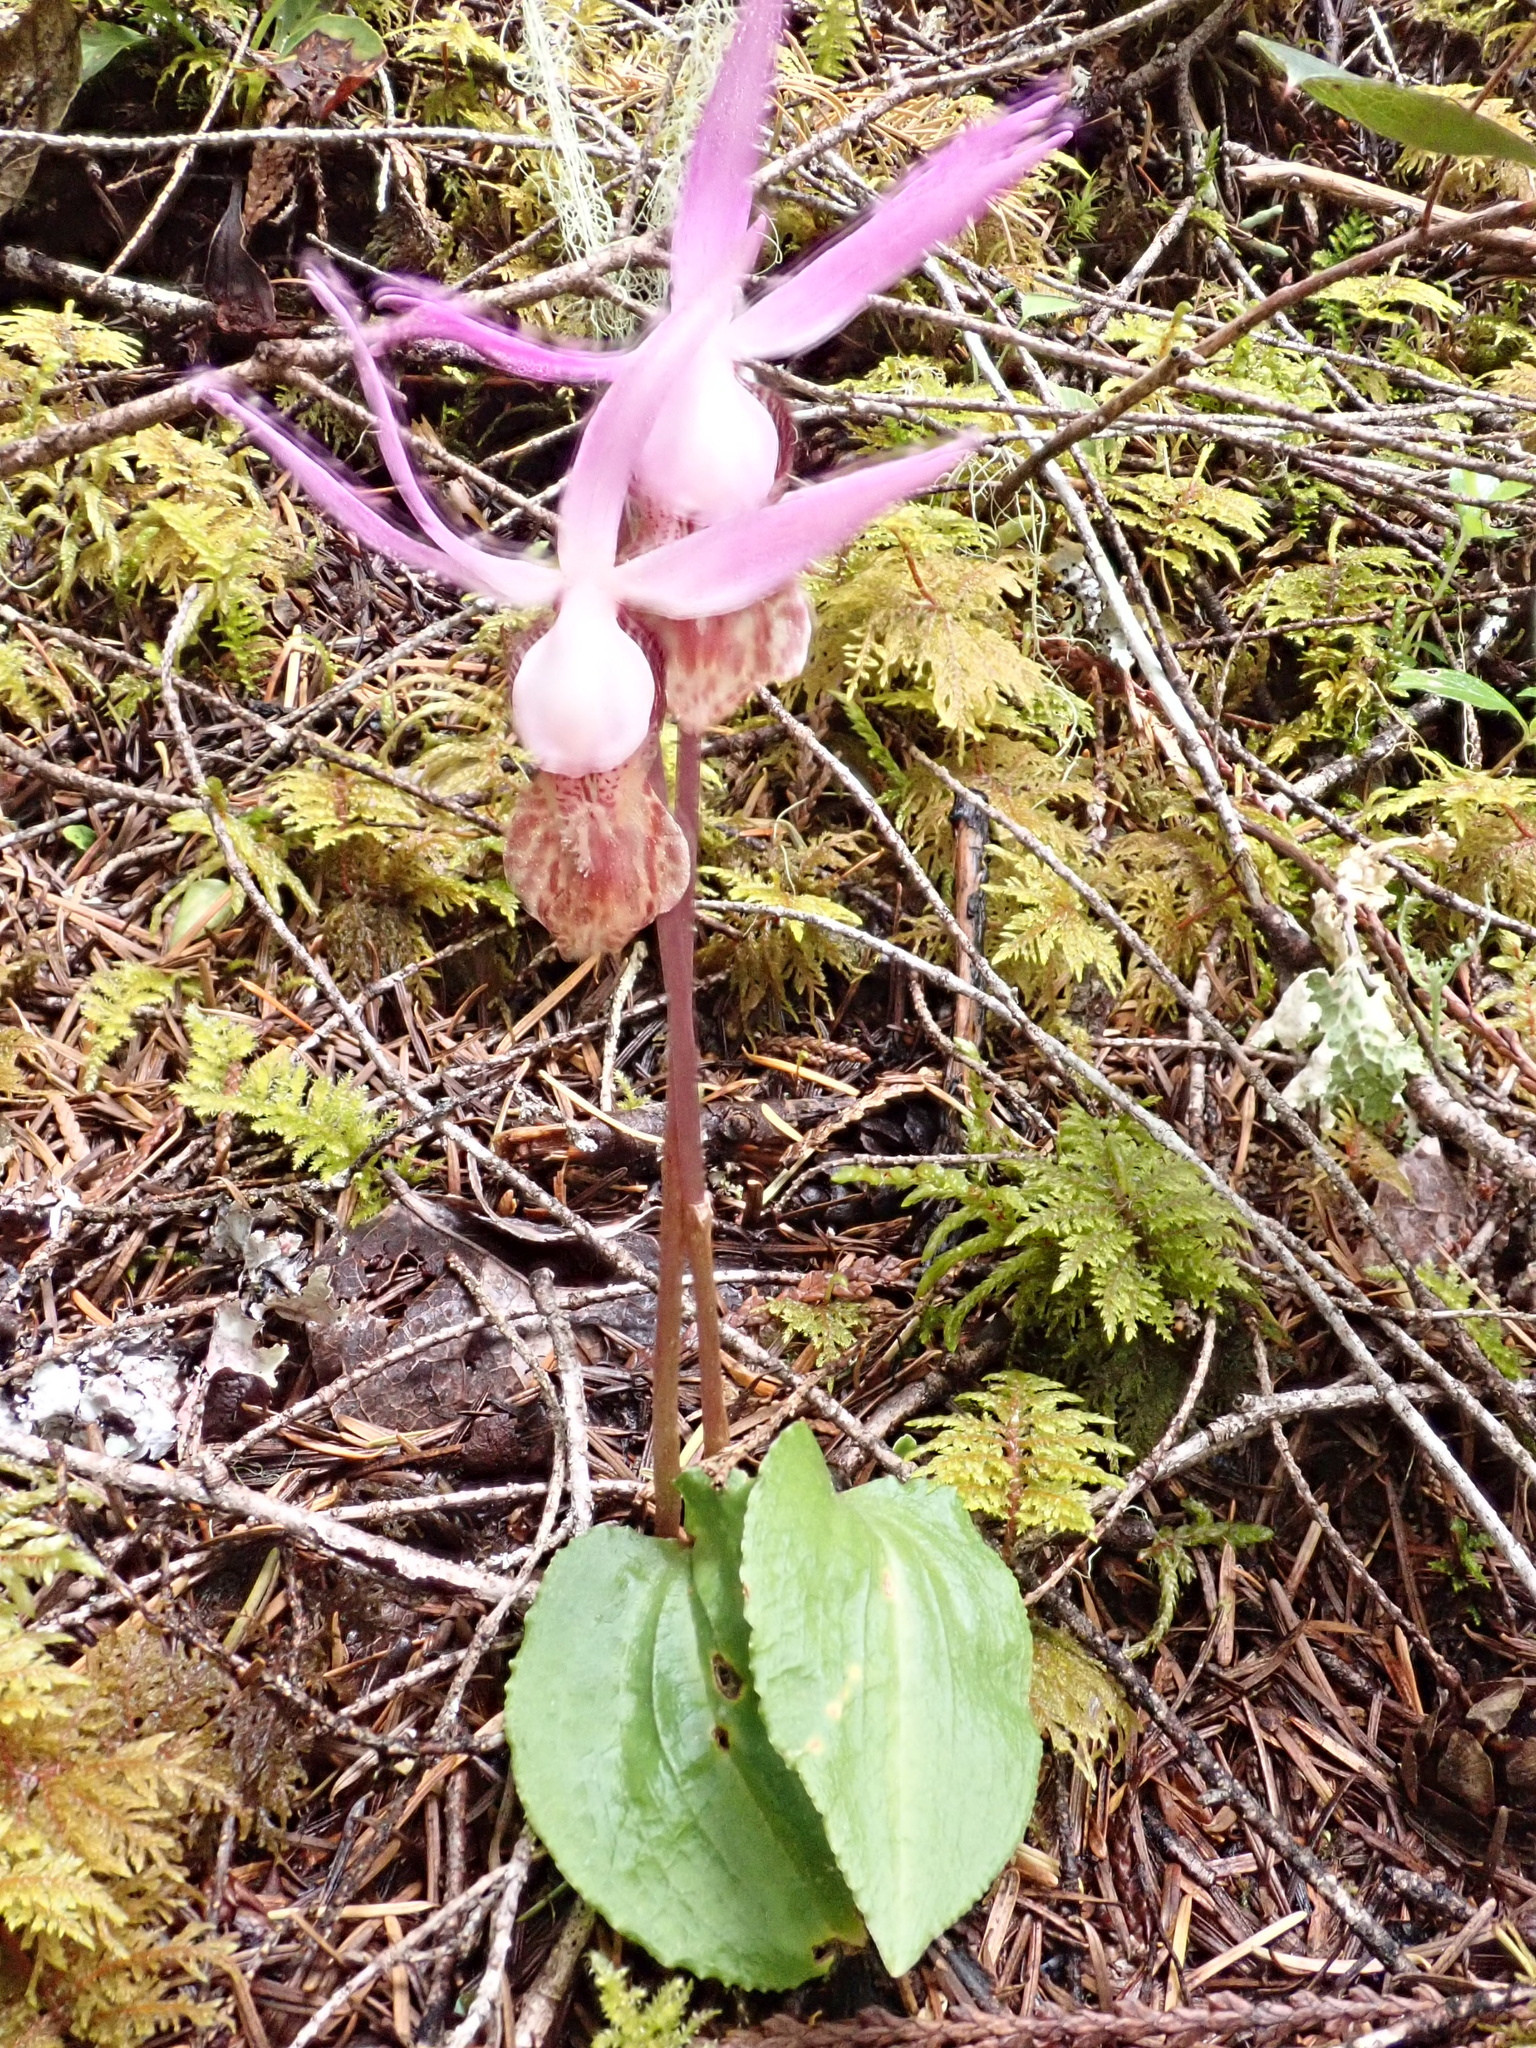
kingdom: Plantae
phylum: Tracheophyta
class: Liliopsida
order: Asparagales
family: Orchidaceae
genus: Calypso
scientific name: Calypso bulbosa
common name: Calypso
